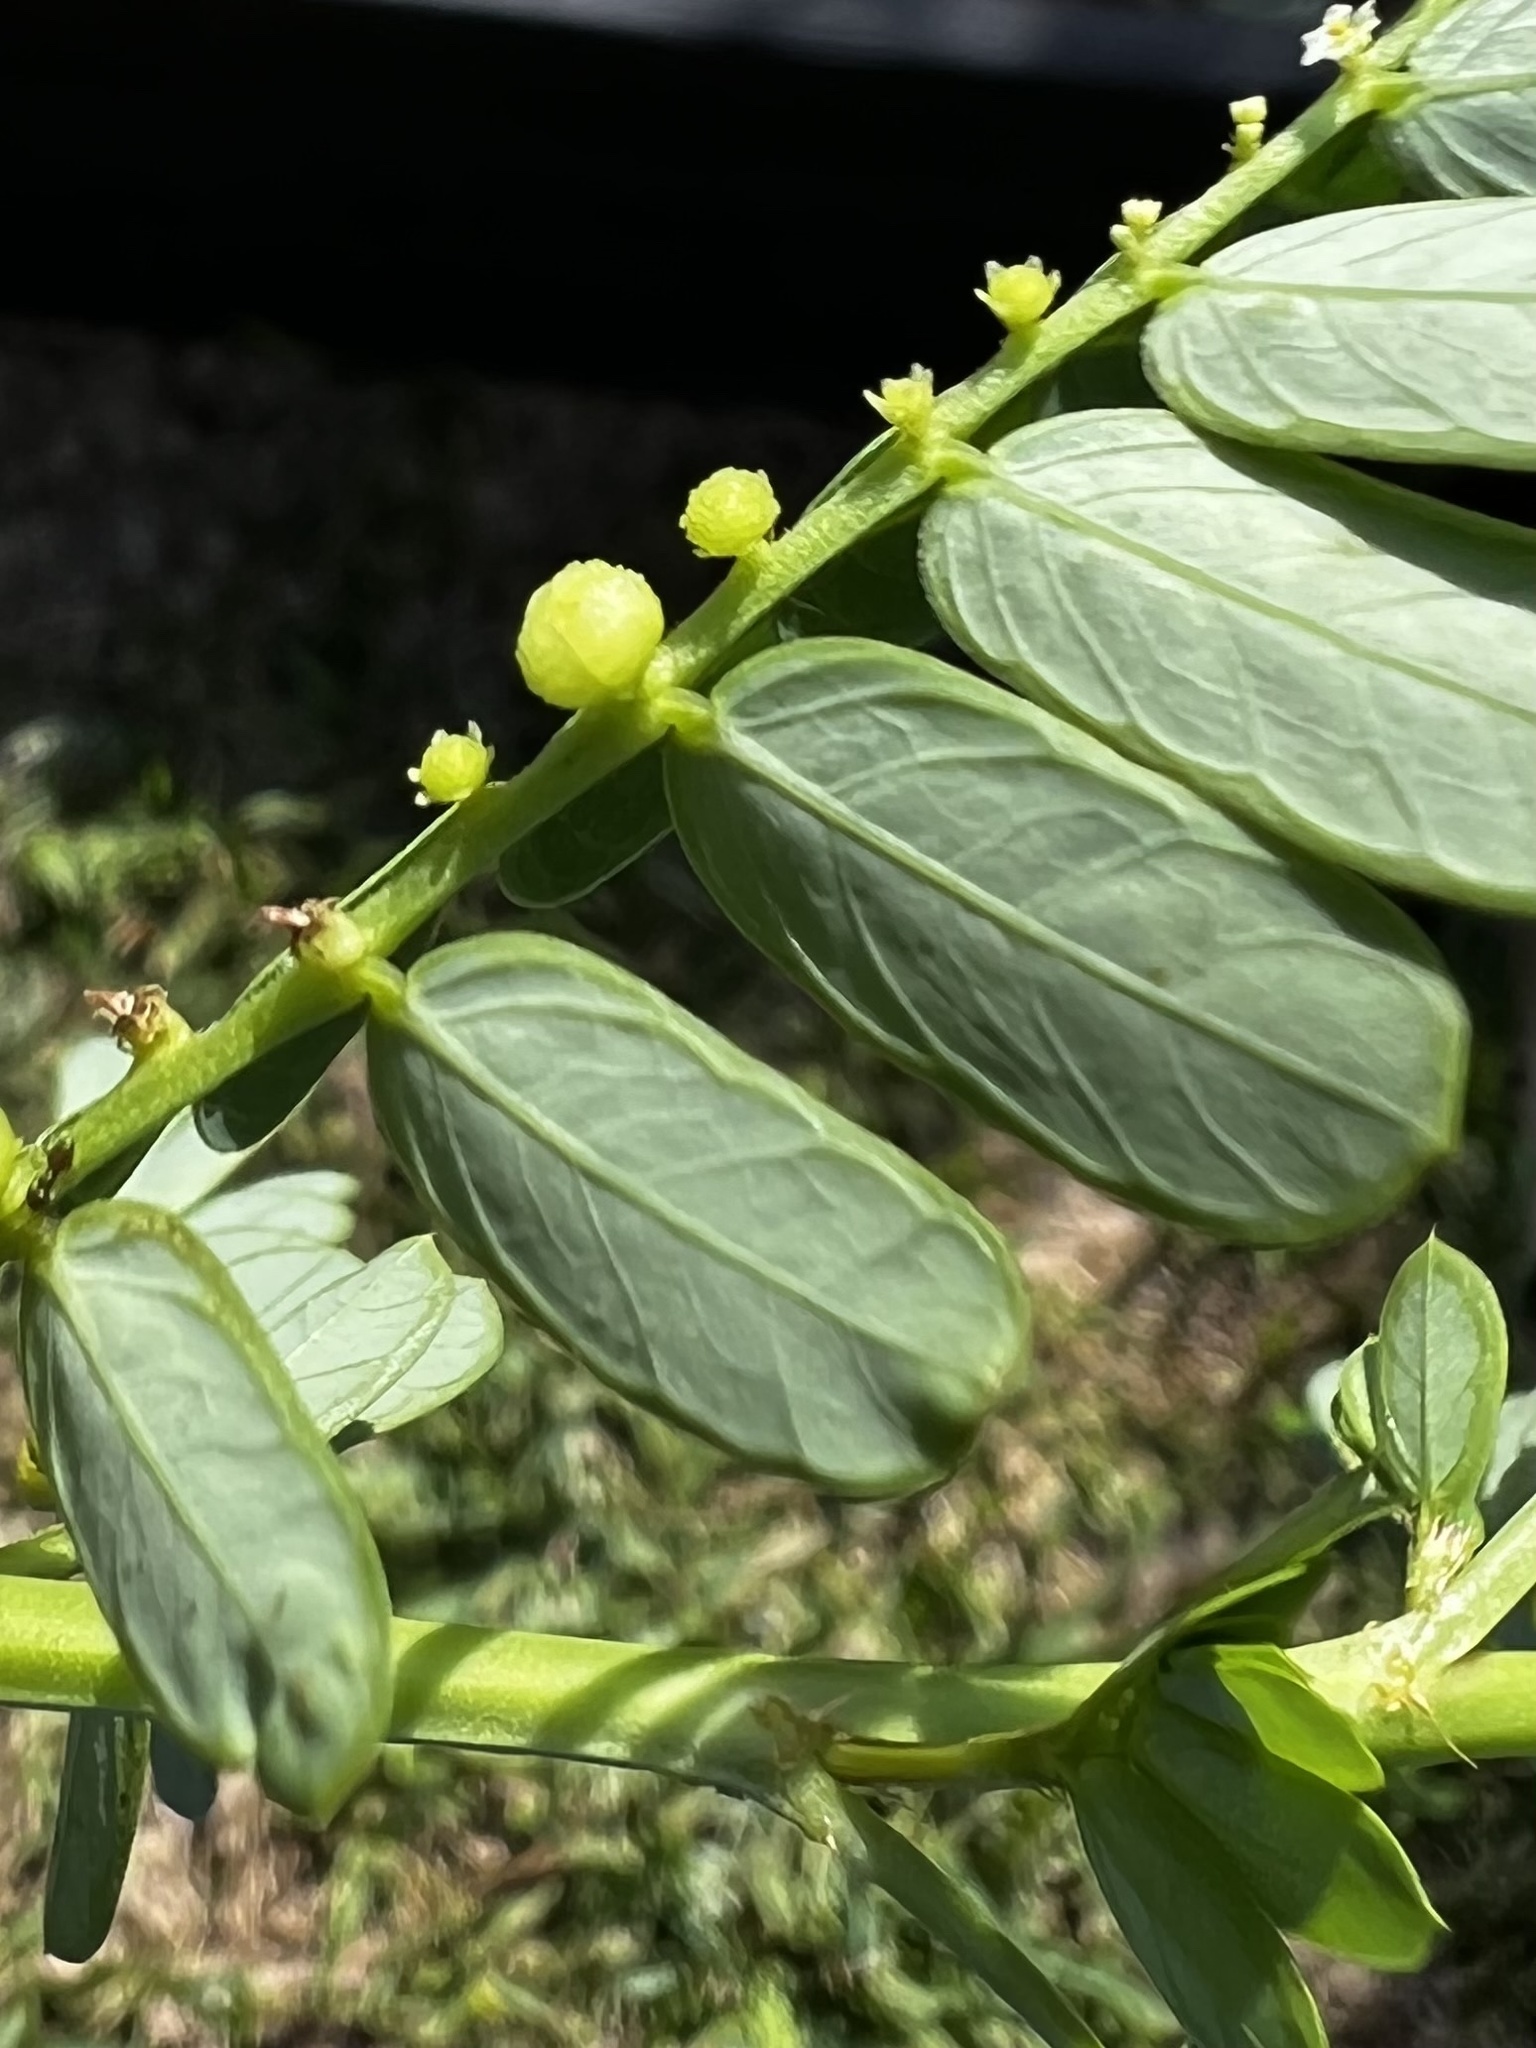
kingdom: Plantae
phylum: Tracheophyta
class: Magnoliopsida
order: Malpighiales
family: Phyllanthaceae
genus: Phyllanthus
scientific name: Phyllanthus urinaria
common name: Chamber bitter
